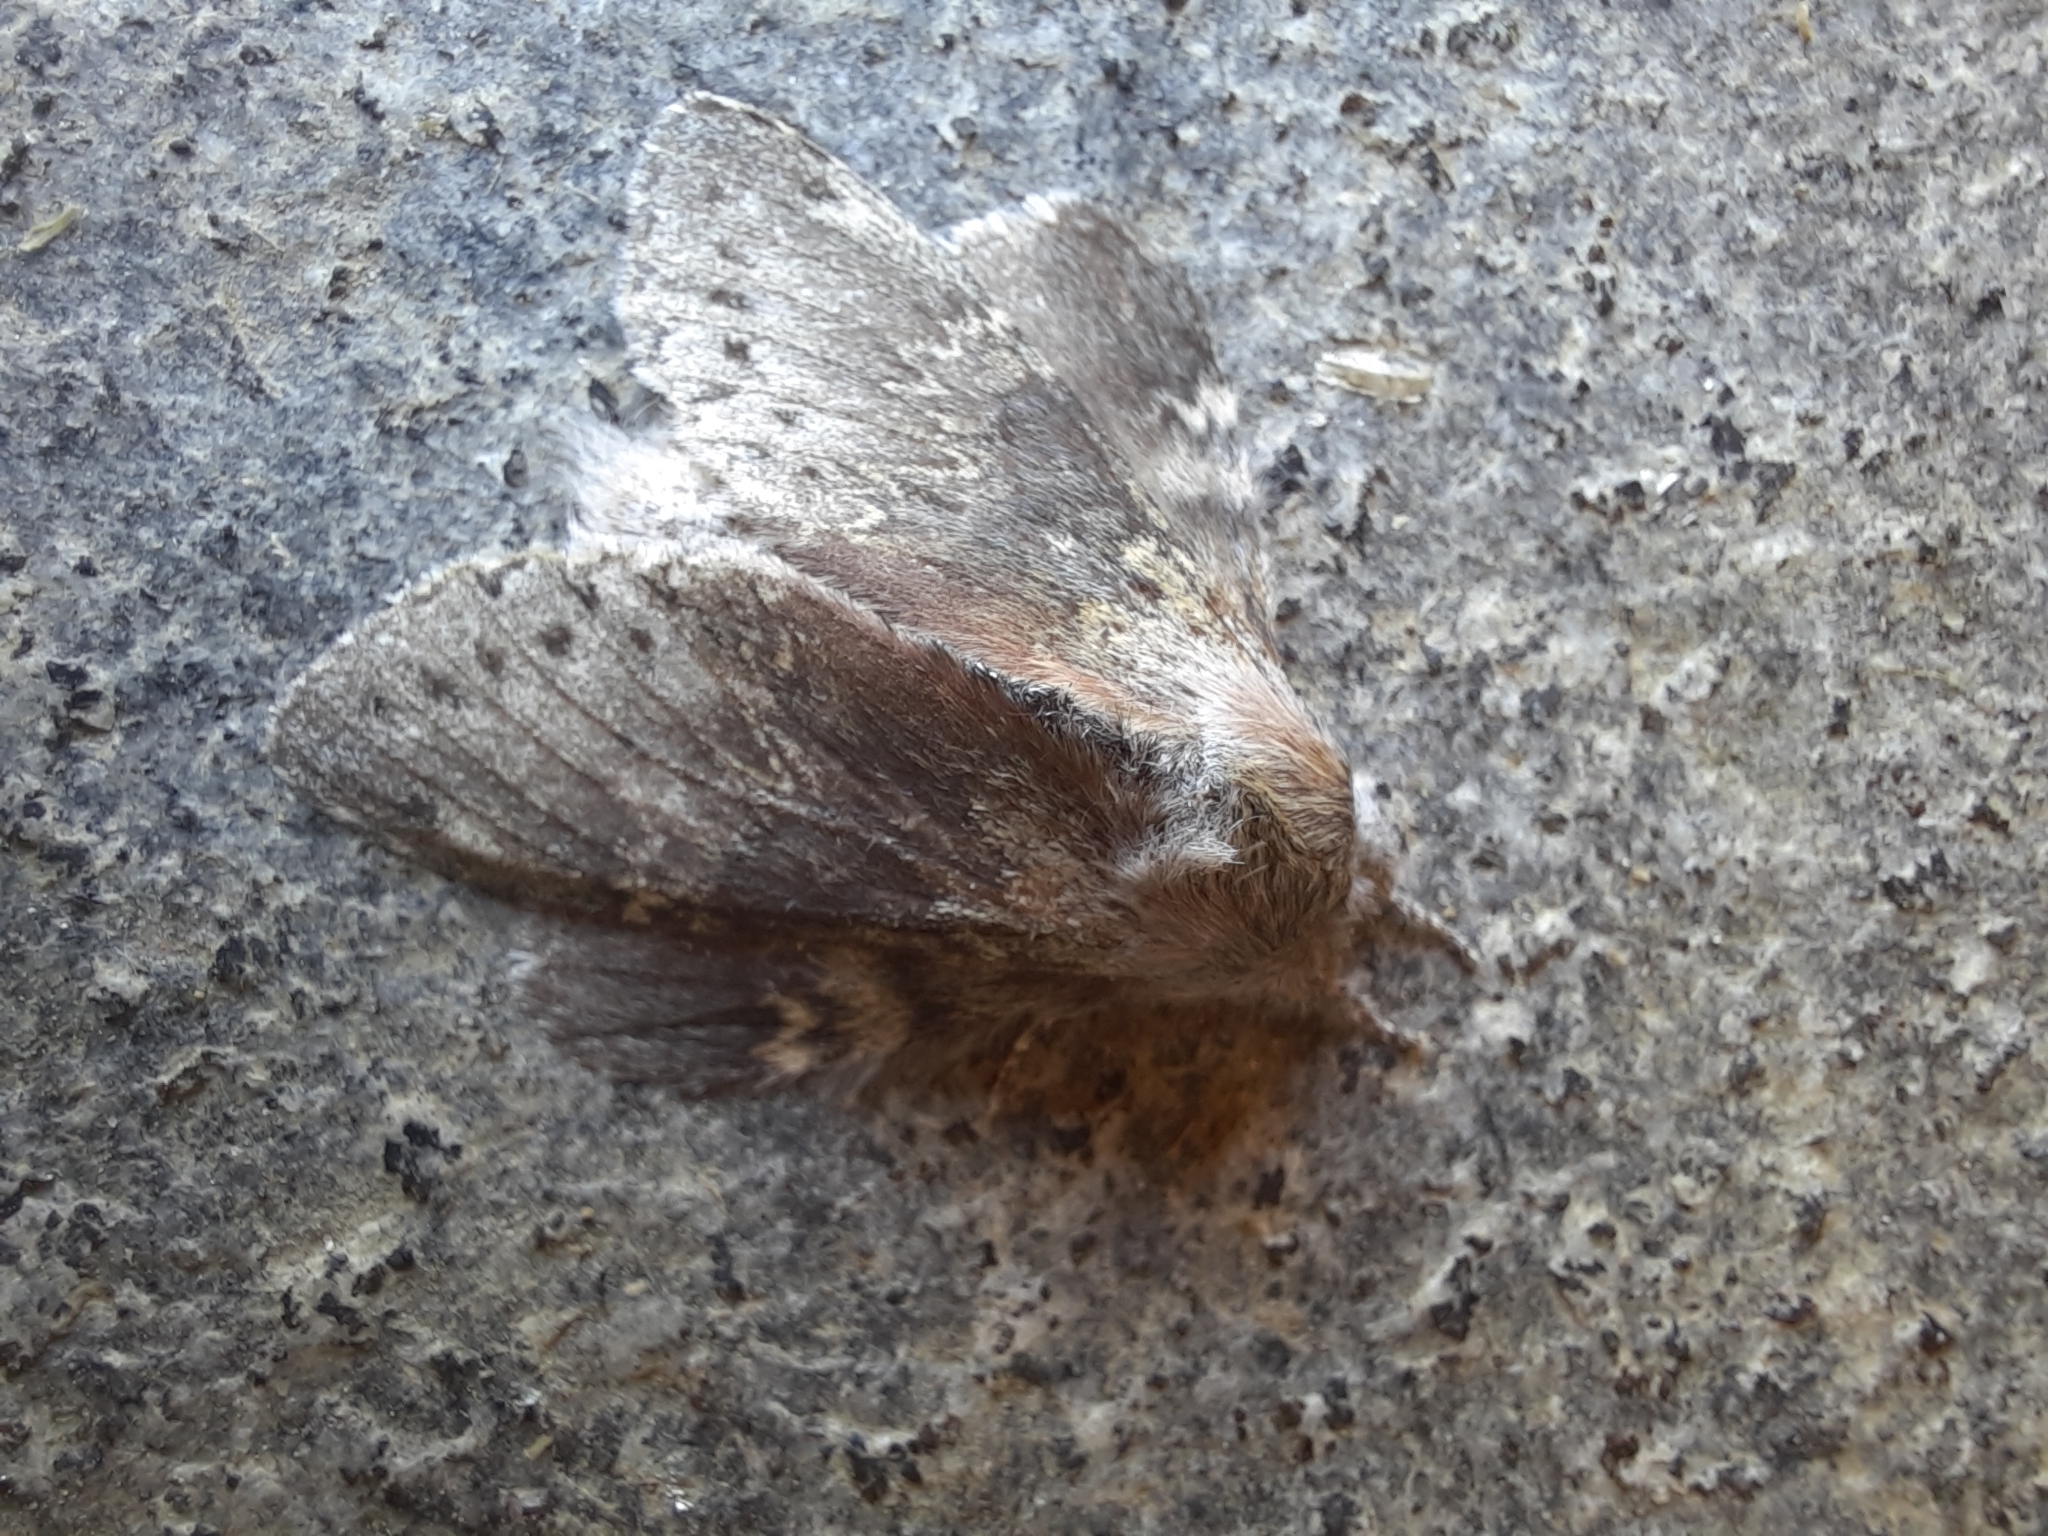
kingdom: Animalia
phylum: Arthropoda
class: Insecta
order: Lepidoptera
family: Notodontidae
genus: Stauropus
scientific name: Stauropus fagi
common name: Lobster moth
